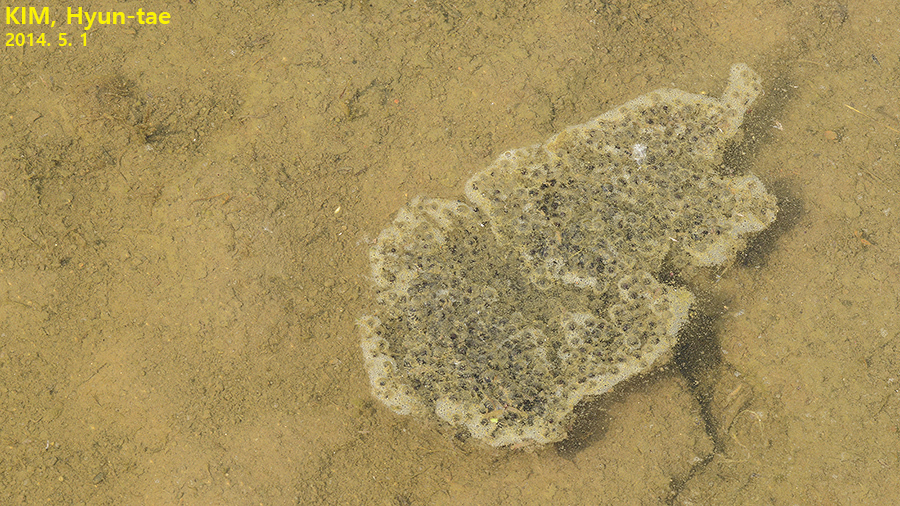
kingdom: Animalia
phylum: Chordata
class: Amphibia
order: Anura
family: Ranidae
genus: Pelophylax
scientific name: Pelophylax nigromaculatus
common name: Black-spotted pond frog
